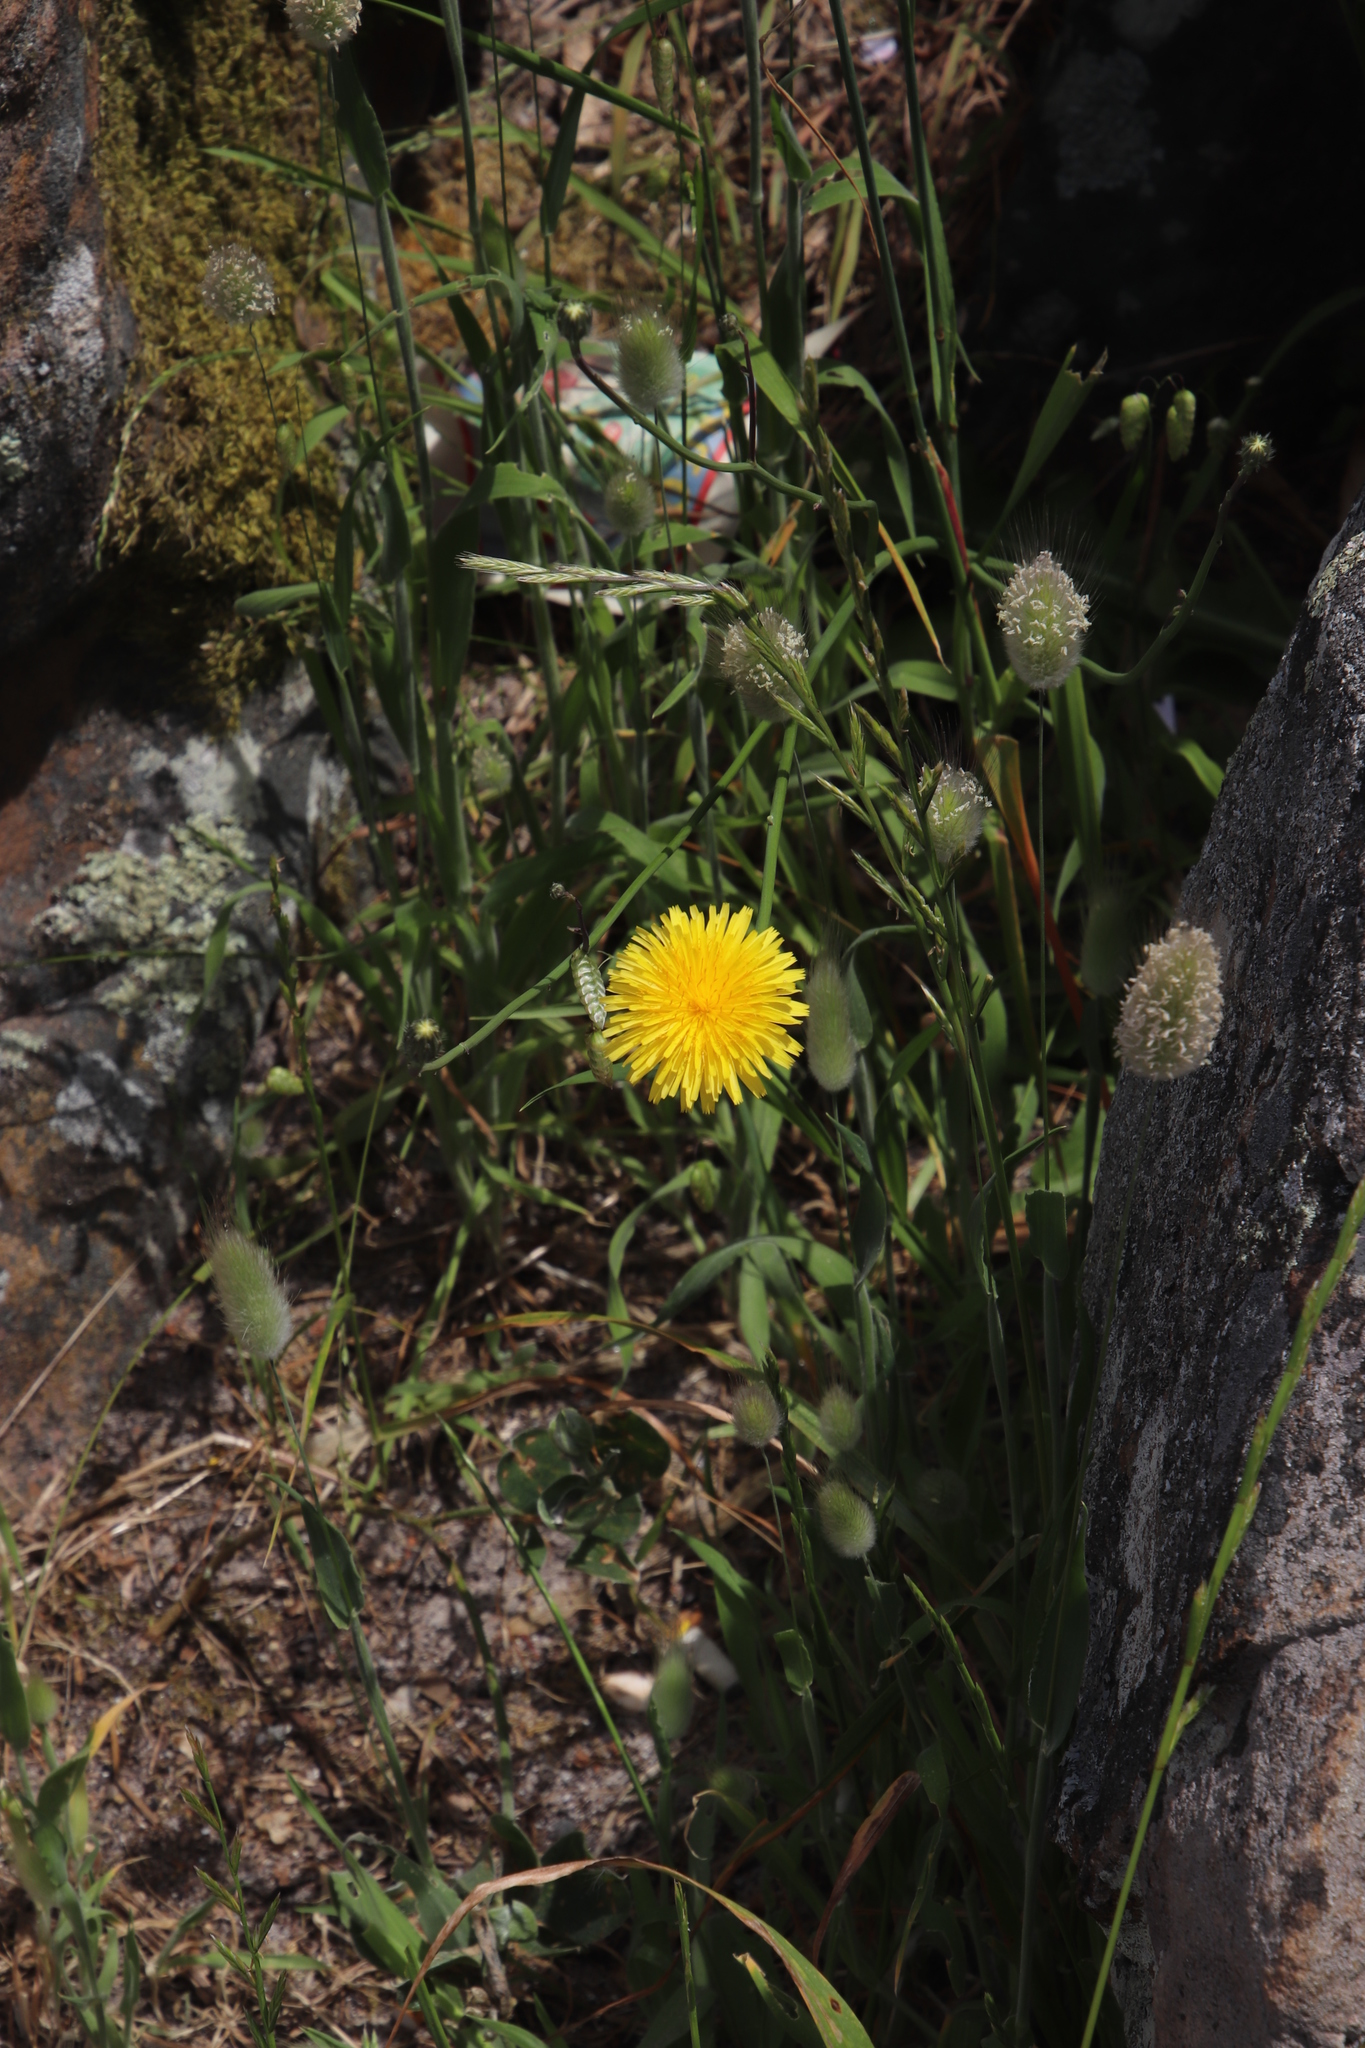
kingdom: Plantae
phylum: Tracheophyta
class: Magnoliopsida
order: Asterales
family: Asteraceae
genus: Hypochaeris
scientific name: Hypochaeris radicata
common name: Flatweed
